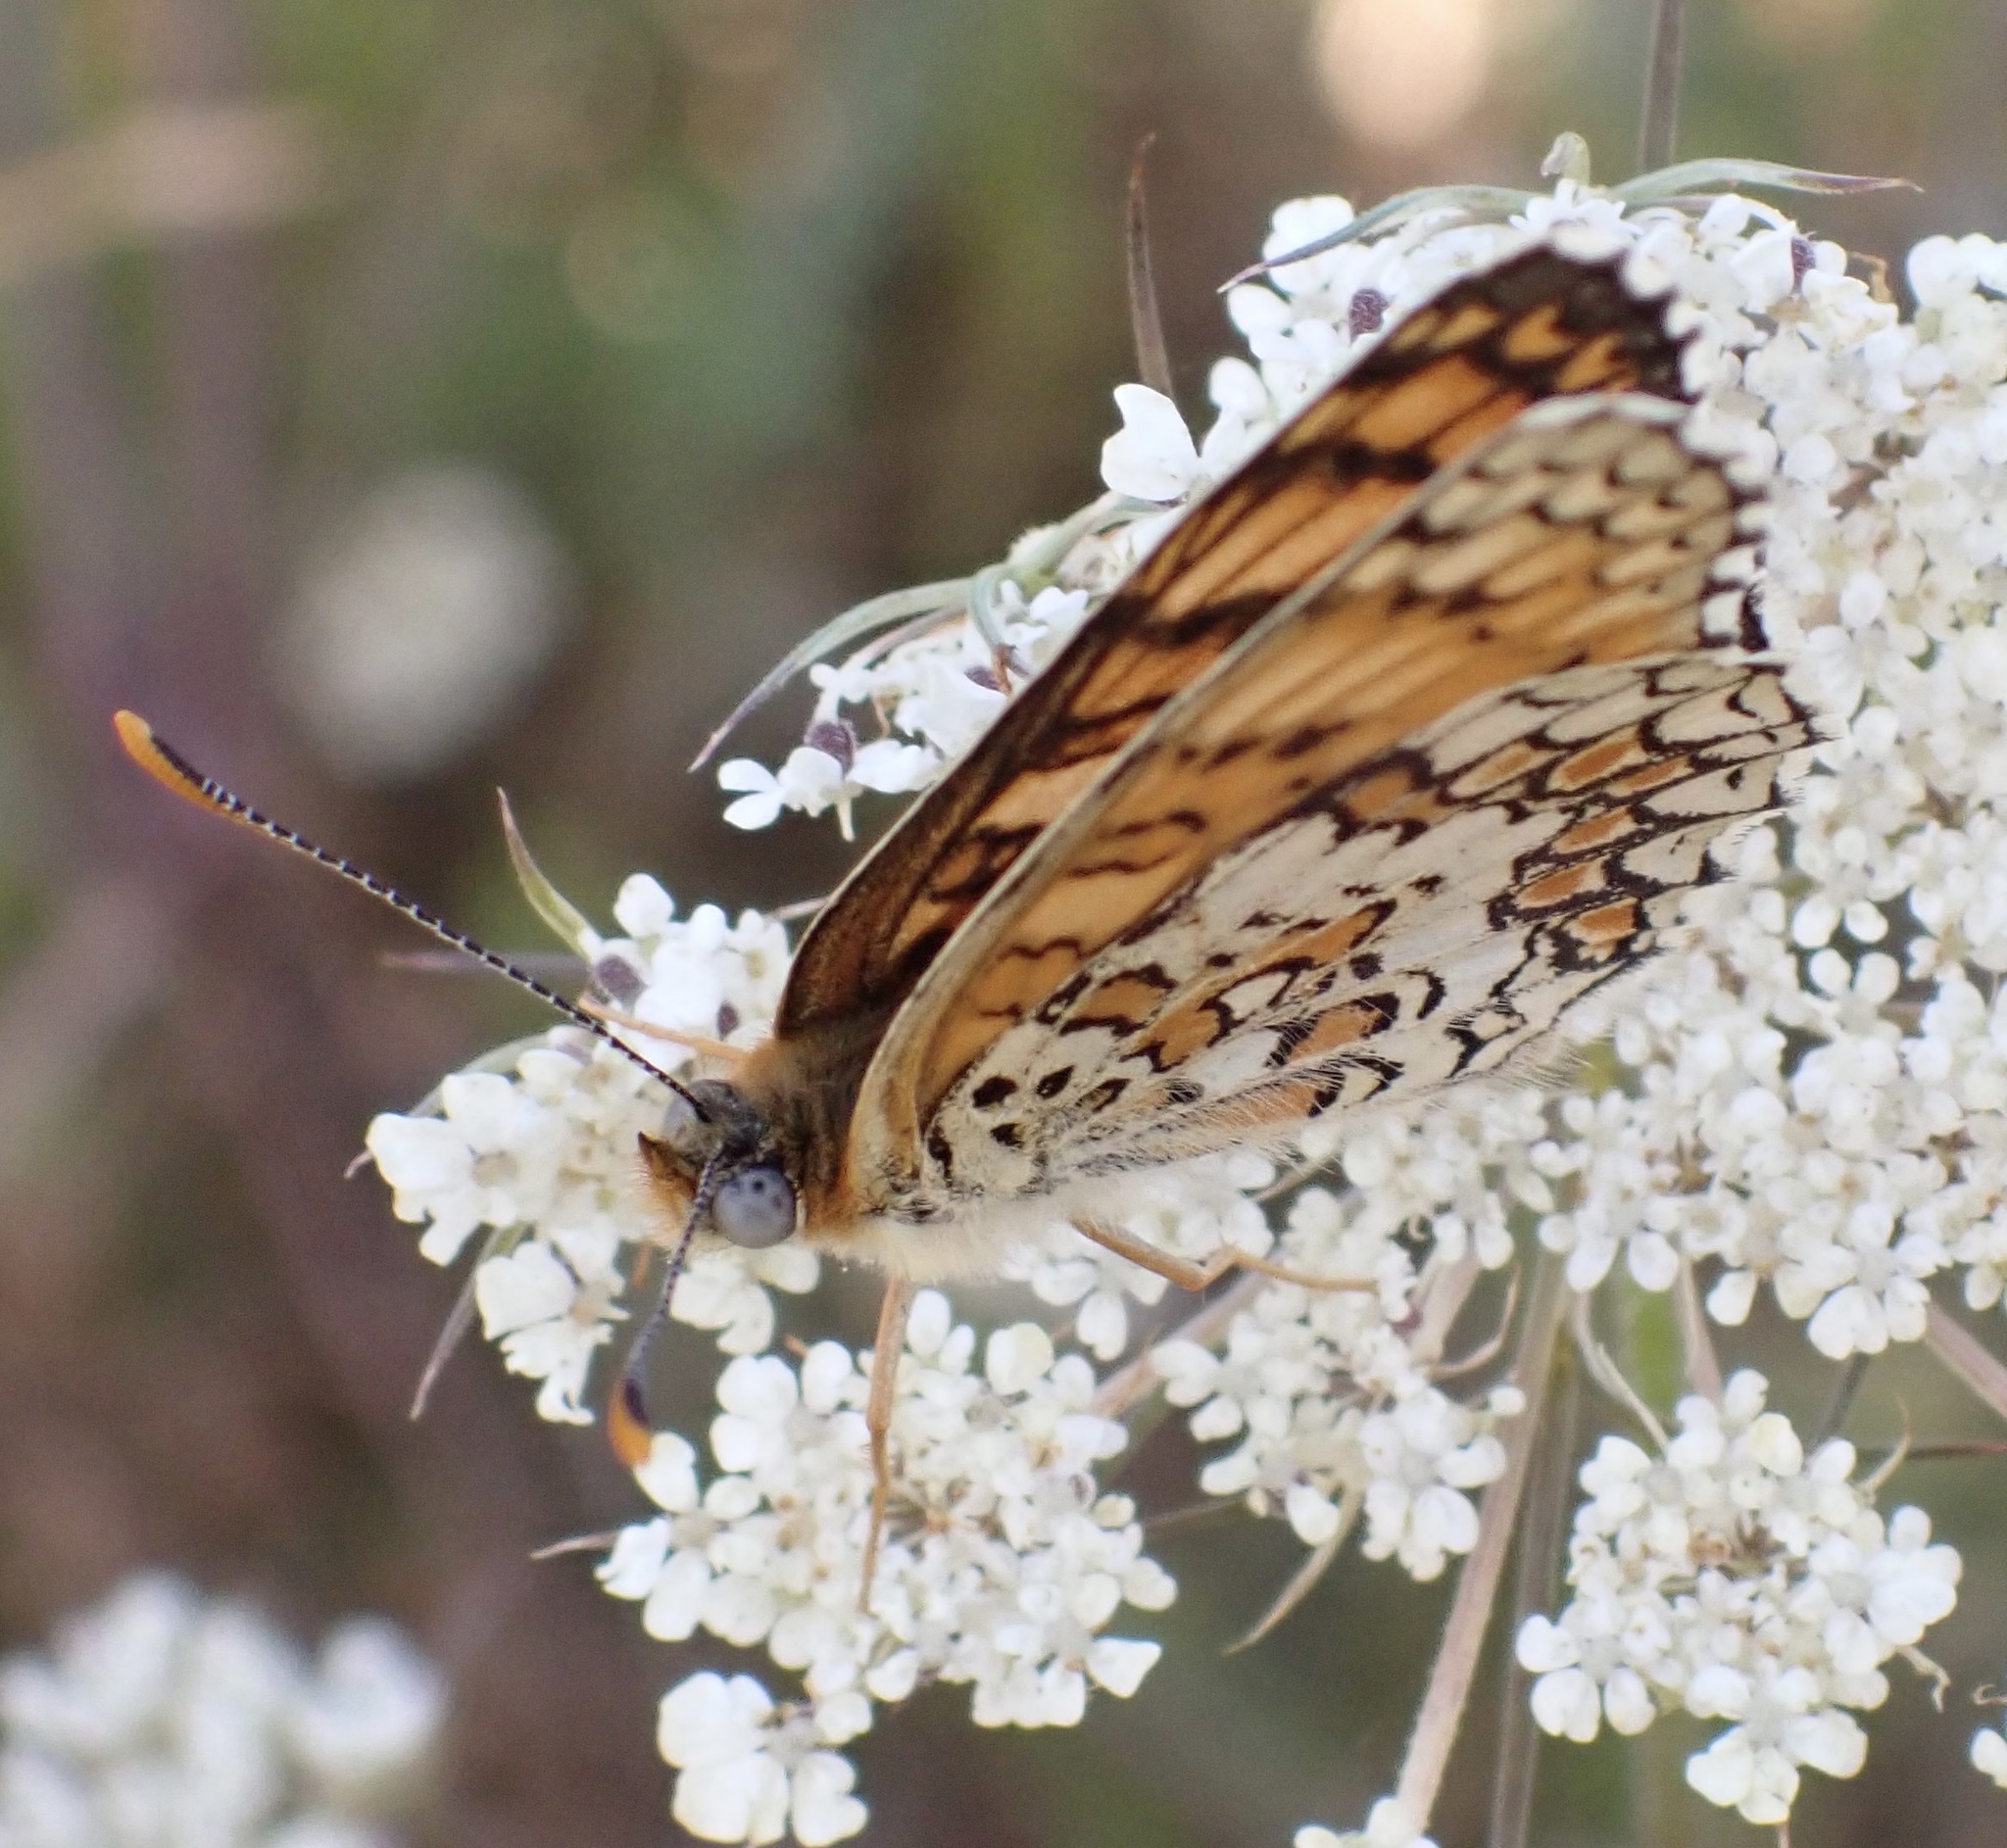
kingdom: Animalia
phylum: Arthropoda
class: Insecta
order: Lepidoptera
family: Nymphalidae
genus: Melitaea
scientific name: Melitaea phoebe
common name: Knapweed fritillary
